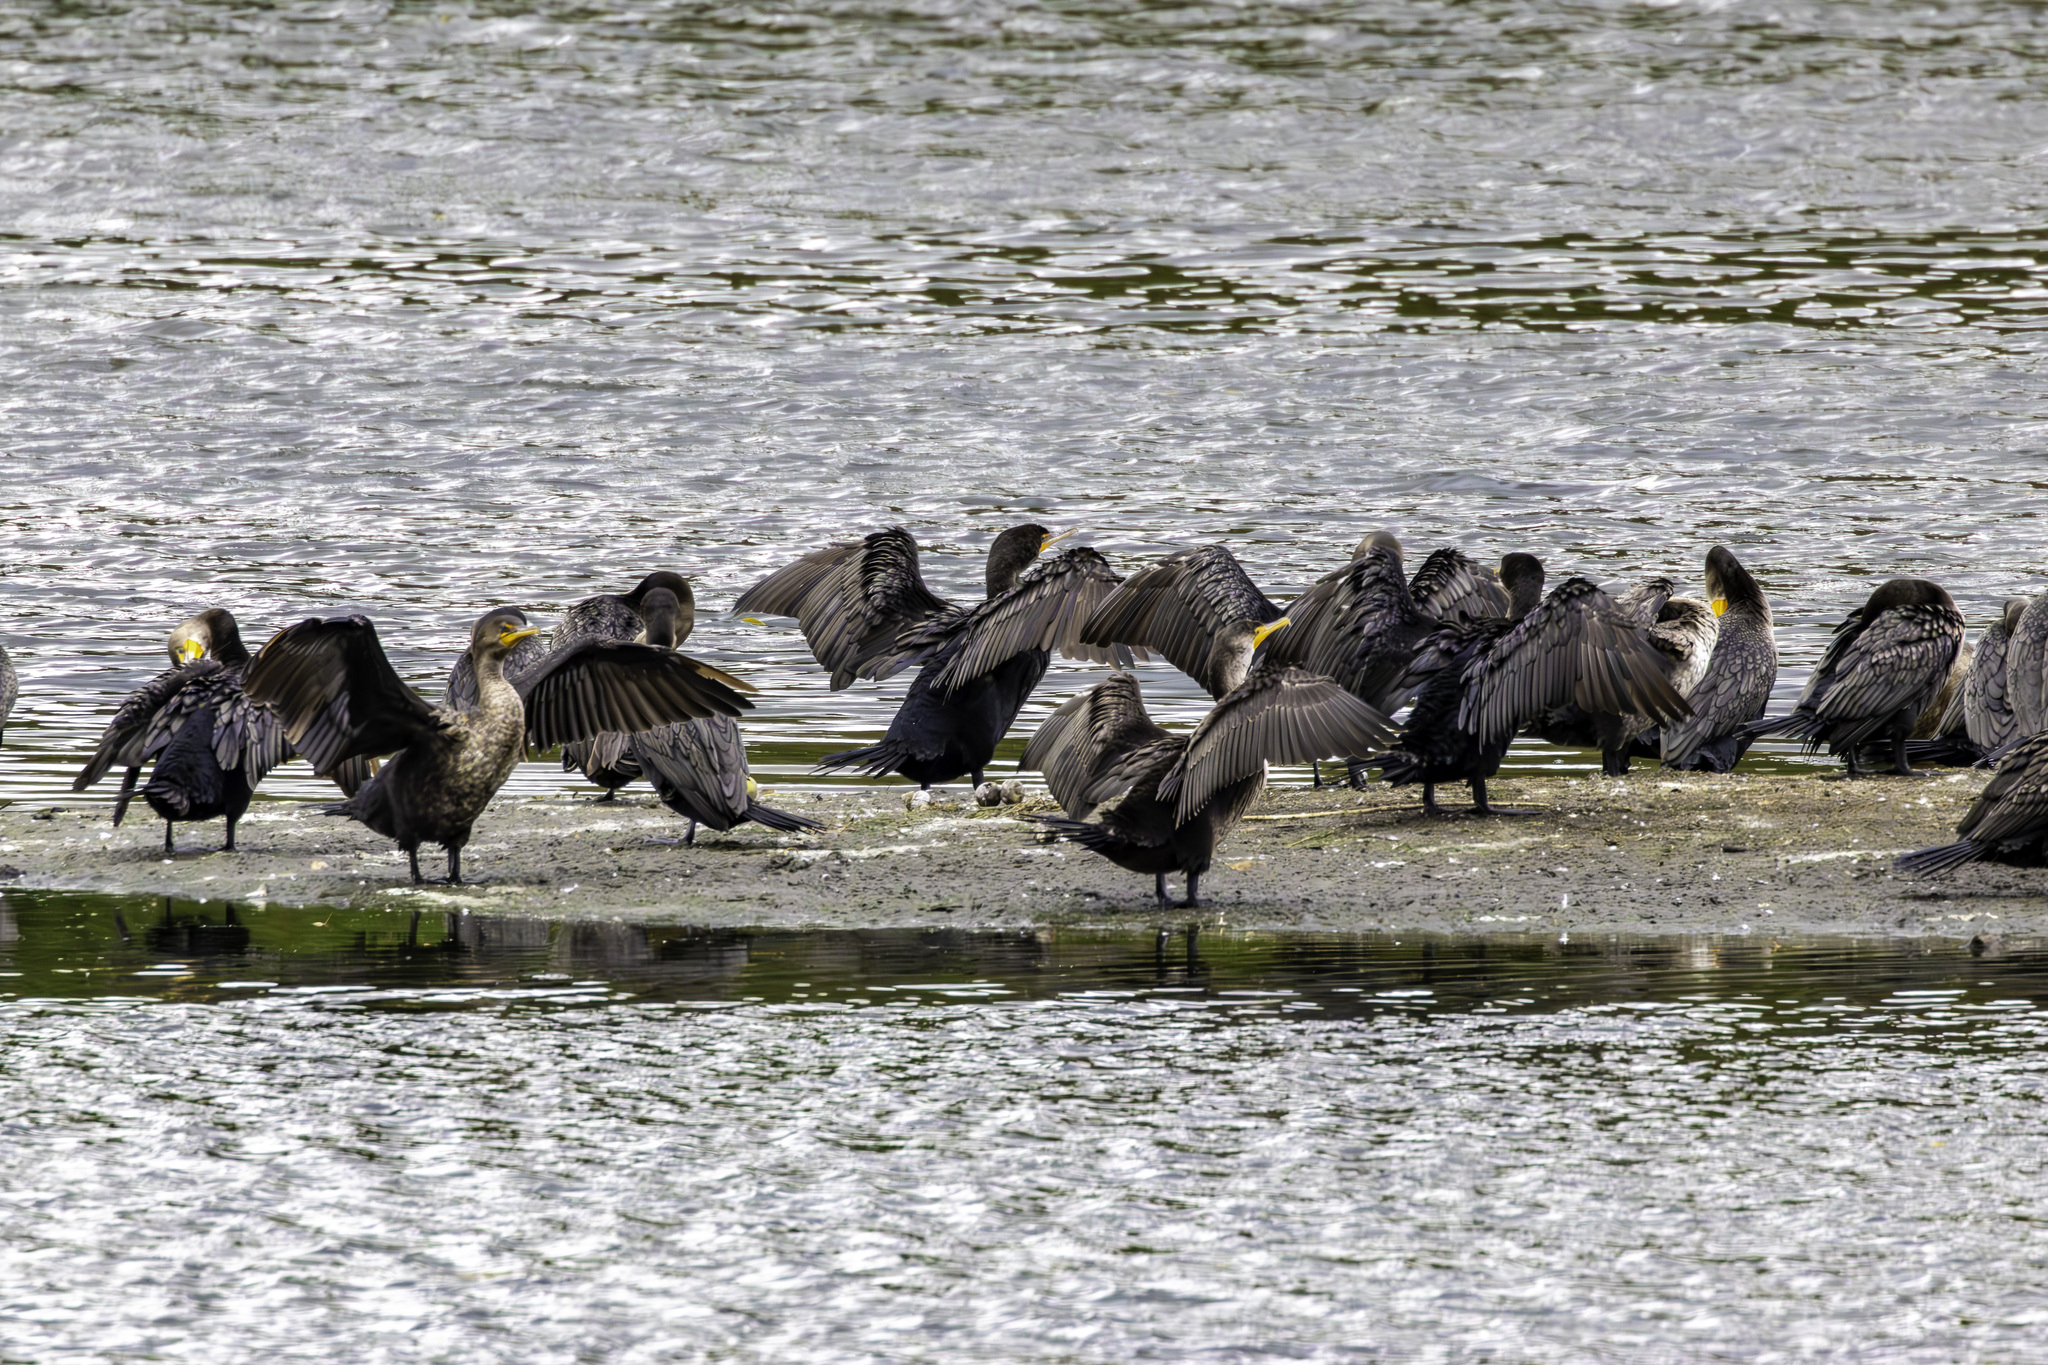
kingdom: Animalia
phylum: Chordata
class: Aves
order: Suliformes
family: Phalacrocoracidae
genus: Phalacrocorax
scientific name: Phalacrocorax auritus
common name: Double-crested cormorant
